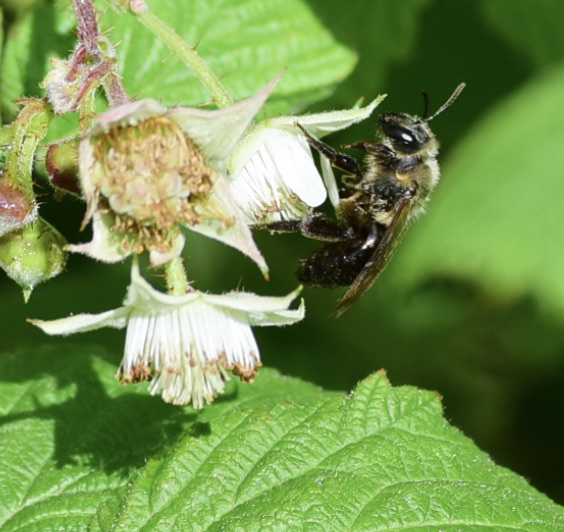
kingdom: Animalia
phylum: Arthropoda
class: Insecta
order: Hymenoptera
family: Andrenidae
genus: Andrena
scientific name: Andrena vicina
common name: Neighborly mining bee
